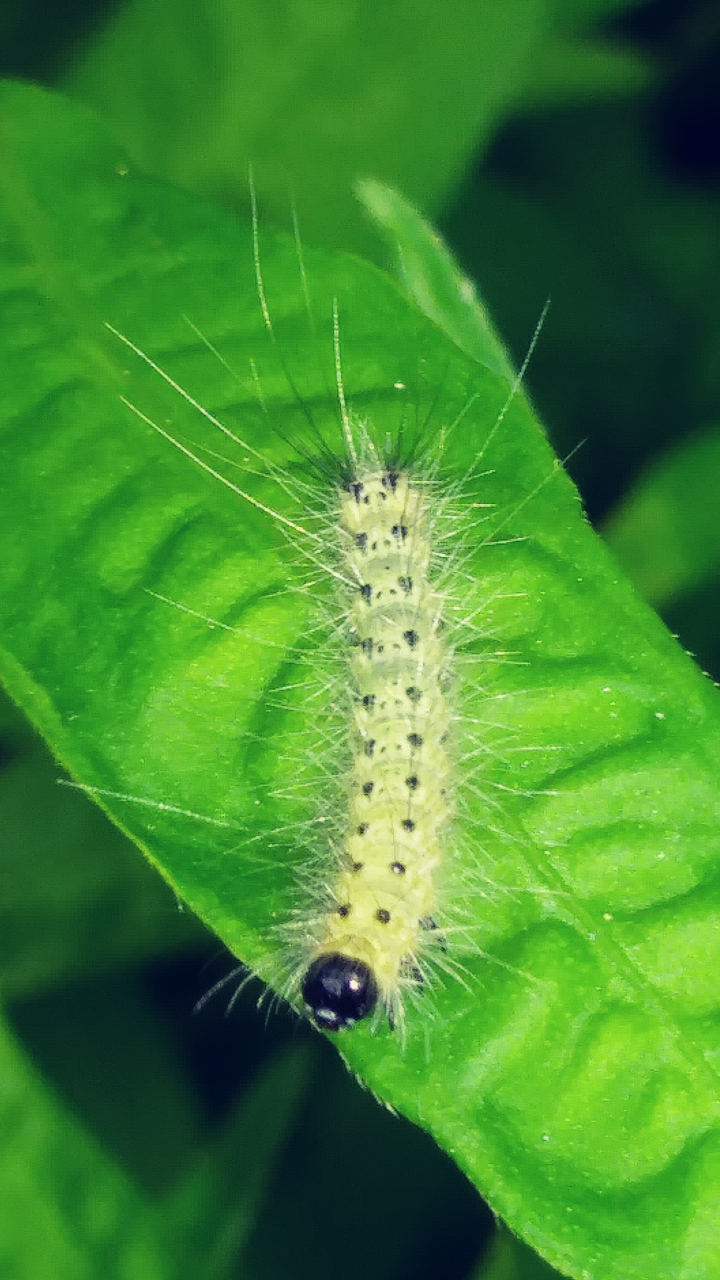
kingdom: Animalia
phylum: Arthropoda
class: Insecta
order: Lepidoptera
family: Erebidae
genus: Hyphantria
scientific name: Hyphantria cunea
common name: American white moth
